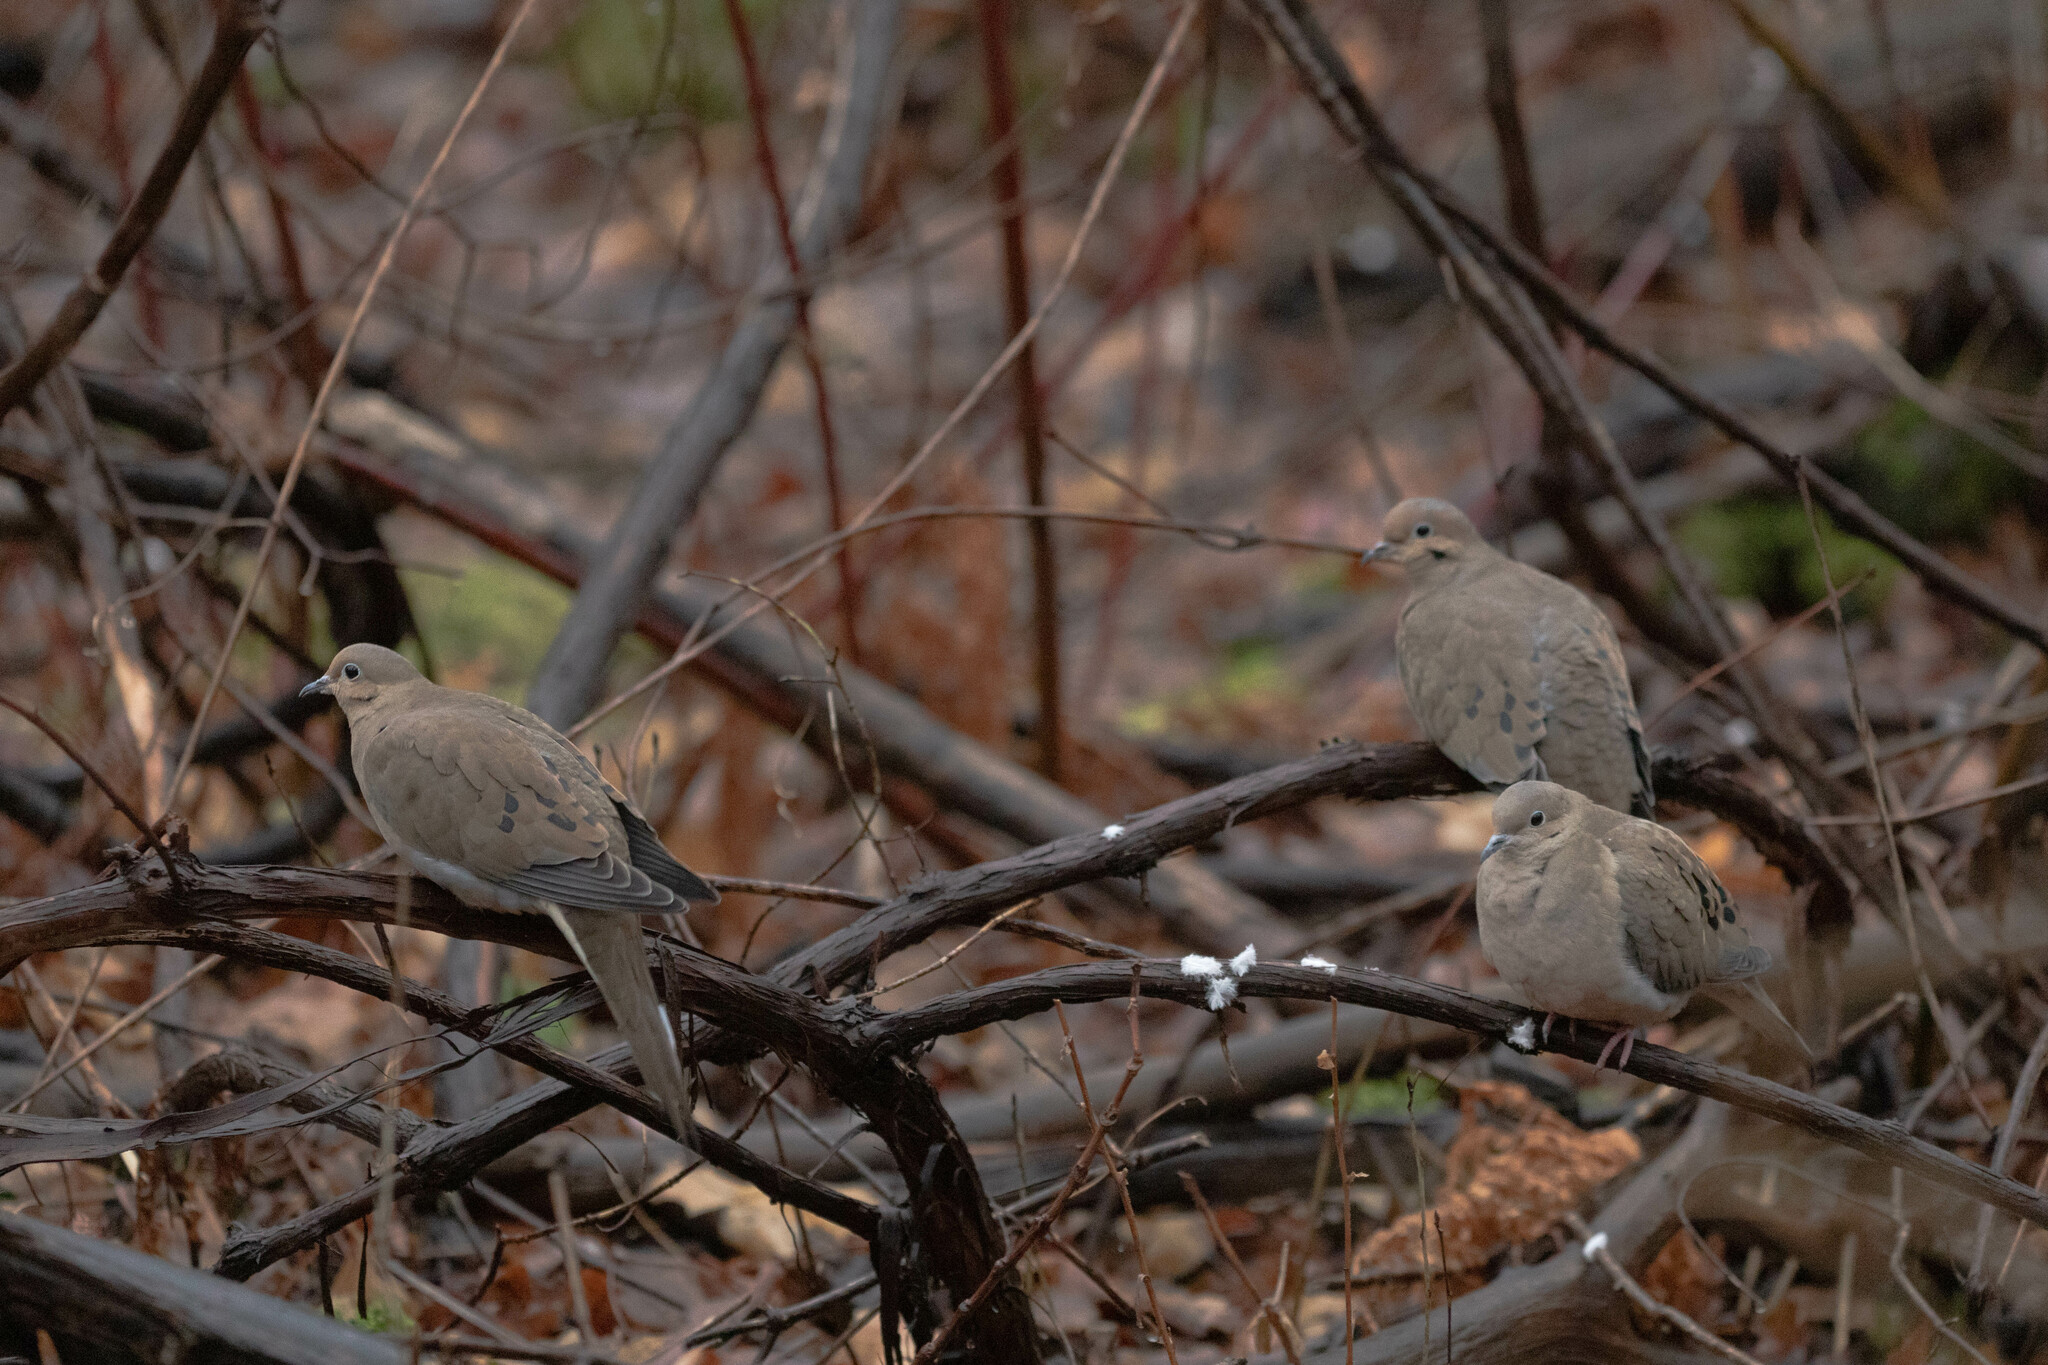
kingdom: Animalia
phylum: Chordata
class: Aves
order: Columbiformes
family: Columbidae
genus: Zenaida
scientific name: Zenaida macroura
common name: Mourning dove
